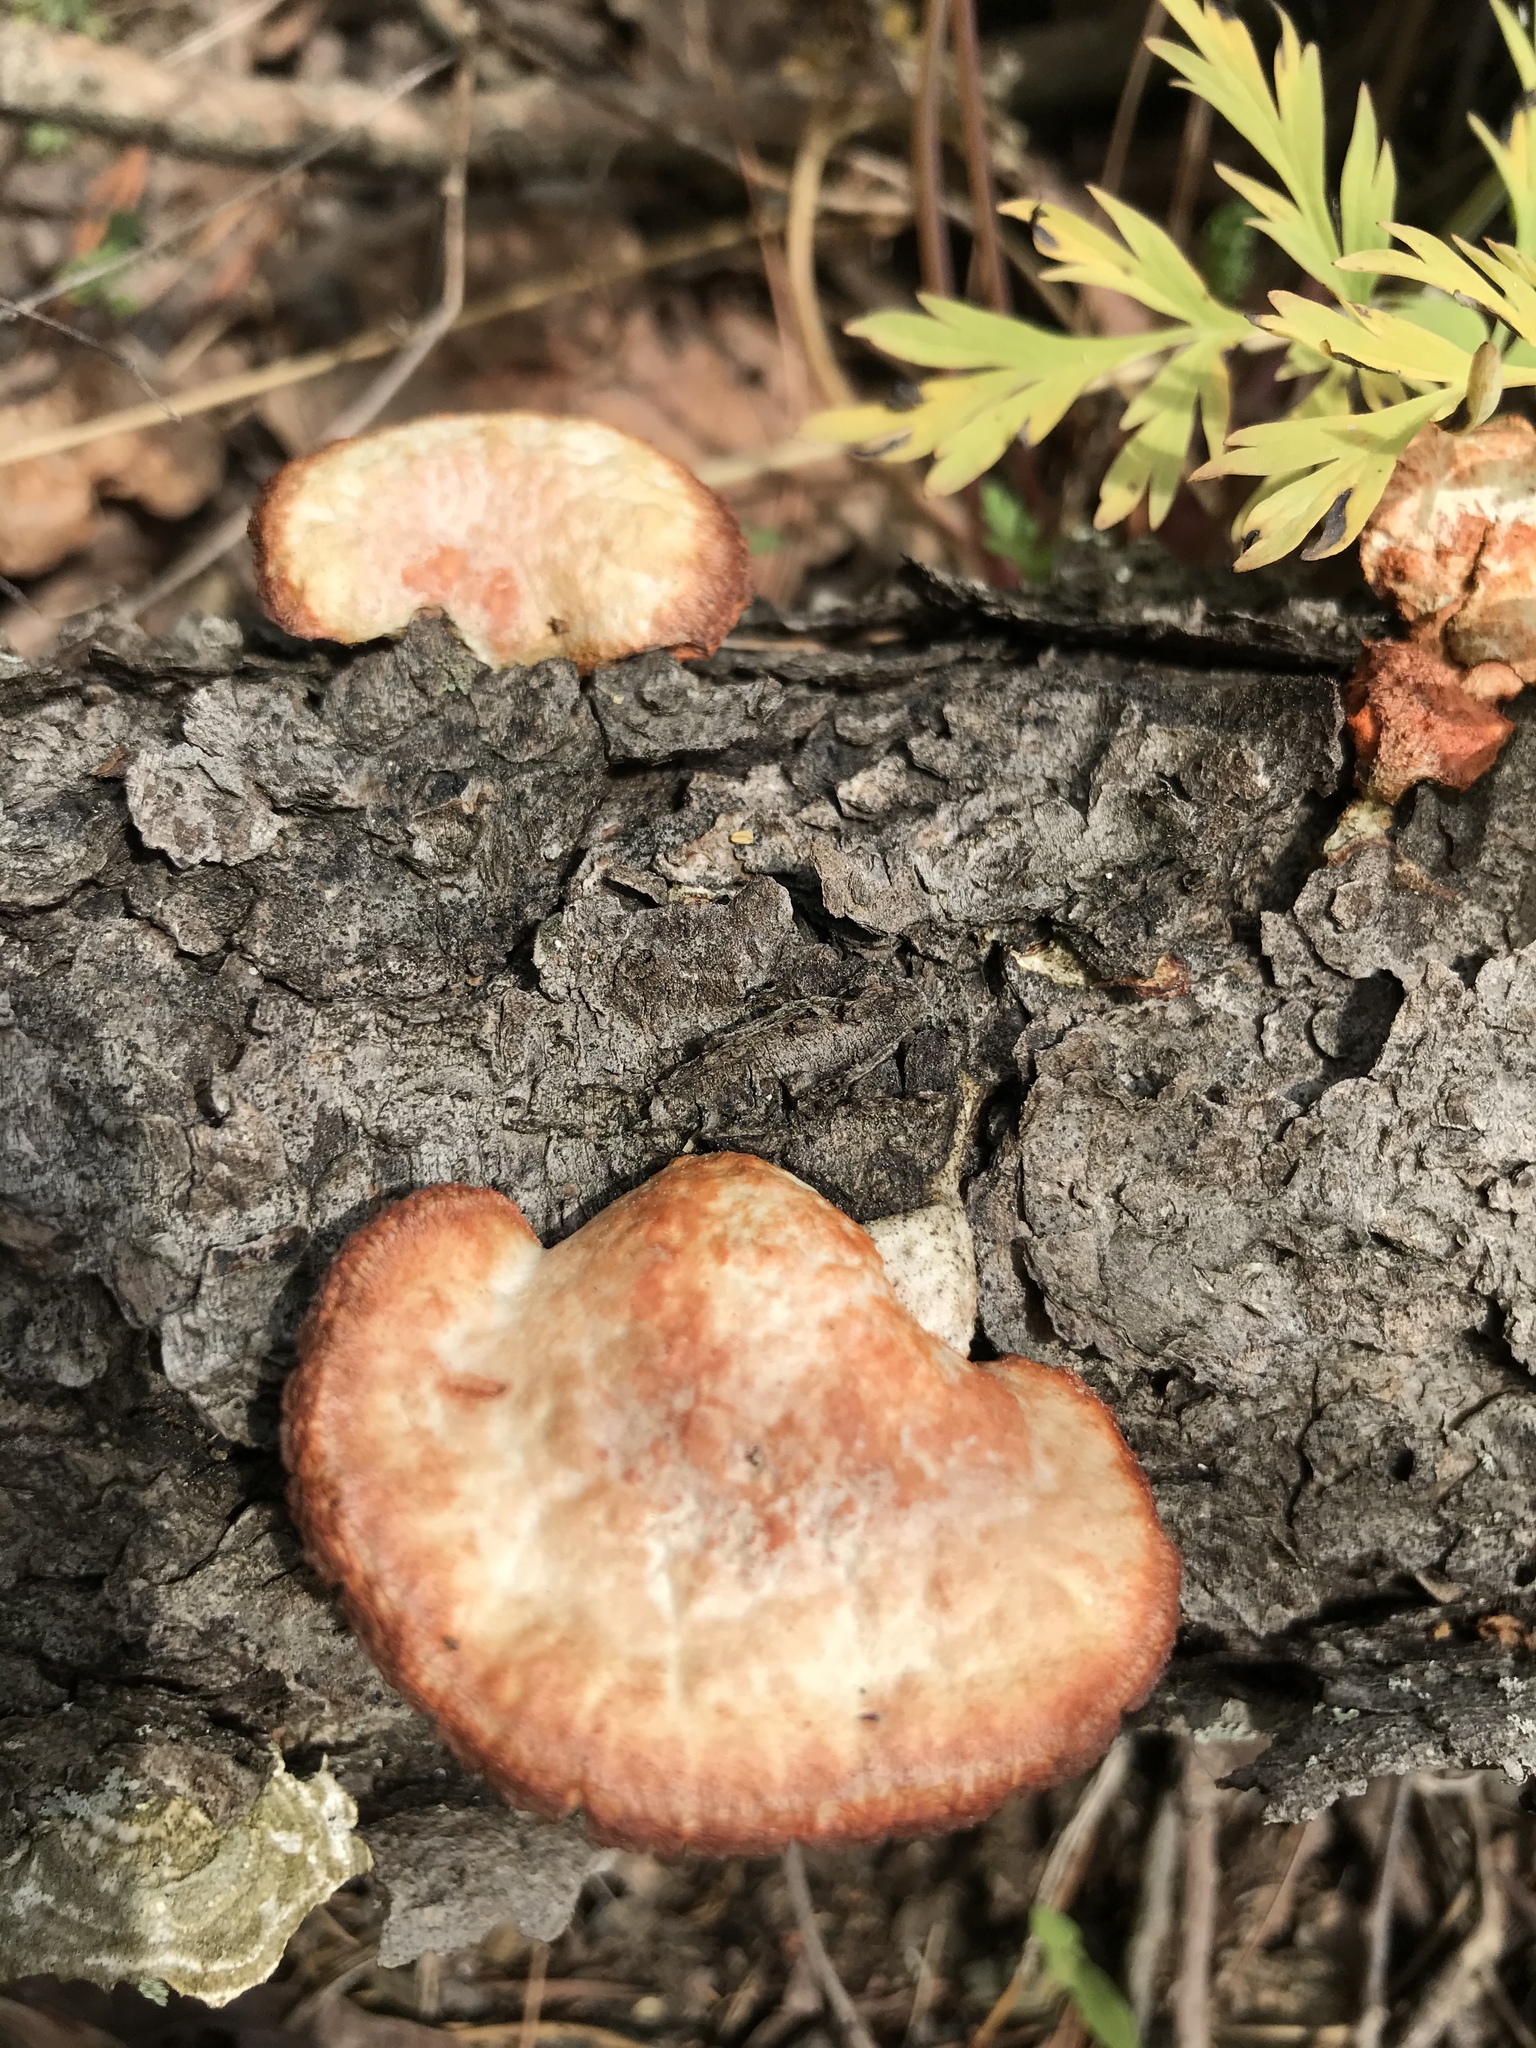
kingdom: Fungi
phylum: Basidiomycota
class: Agaricomycetes
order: Polyporales
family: Polyporaceae
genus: Trametes
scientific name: Trametes cinnabarina
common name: Northern cinnabar polypore
